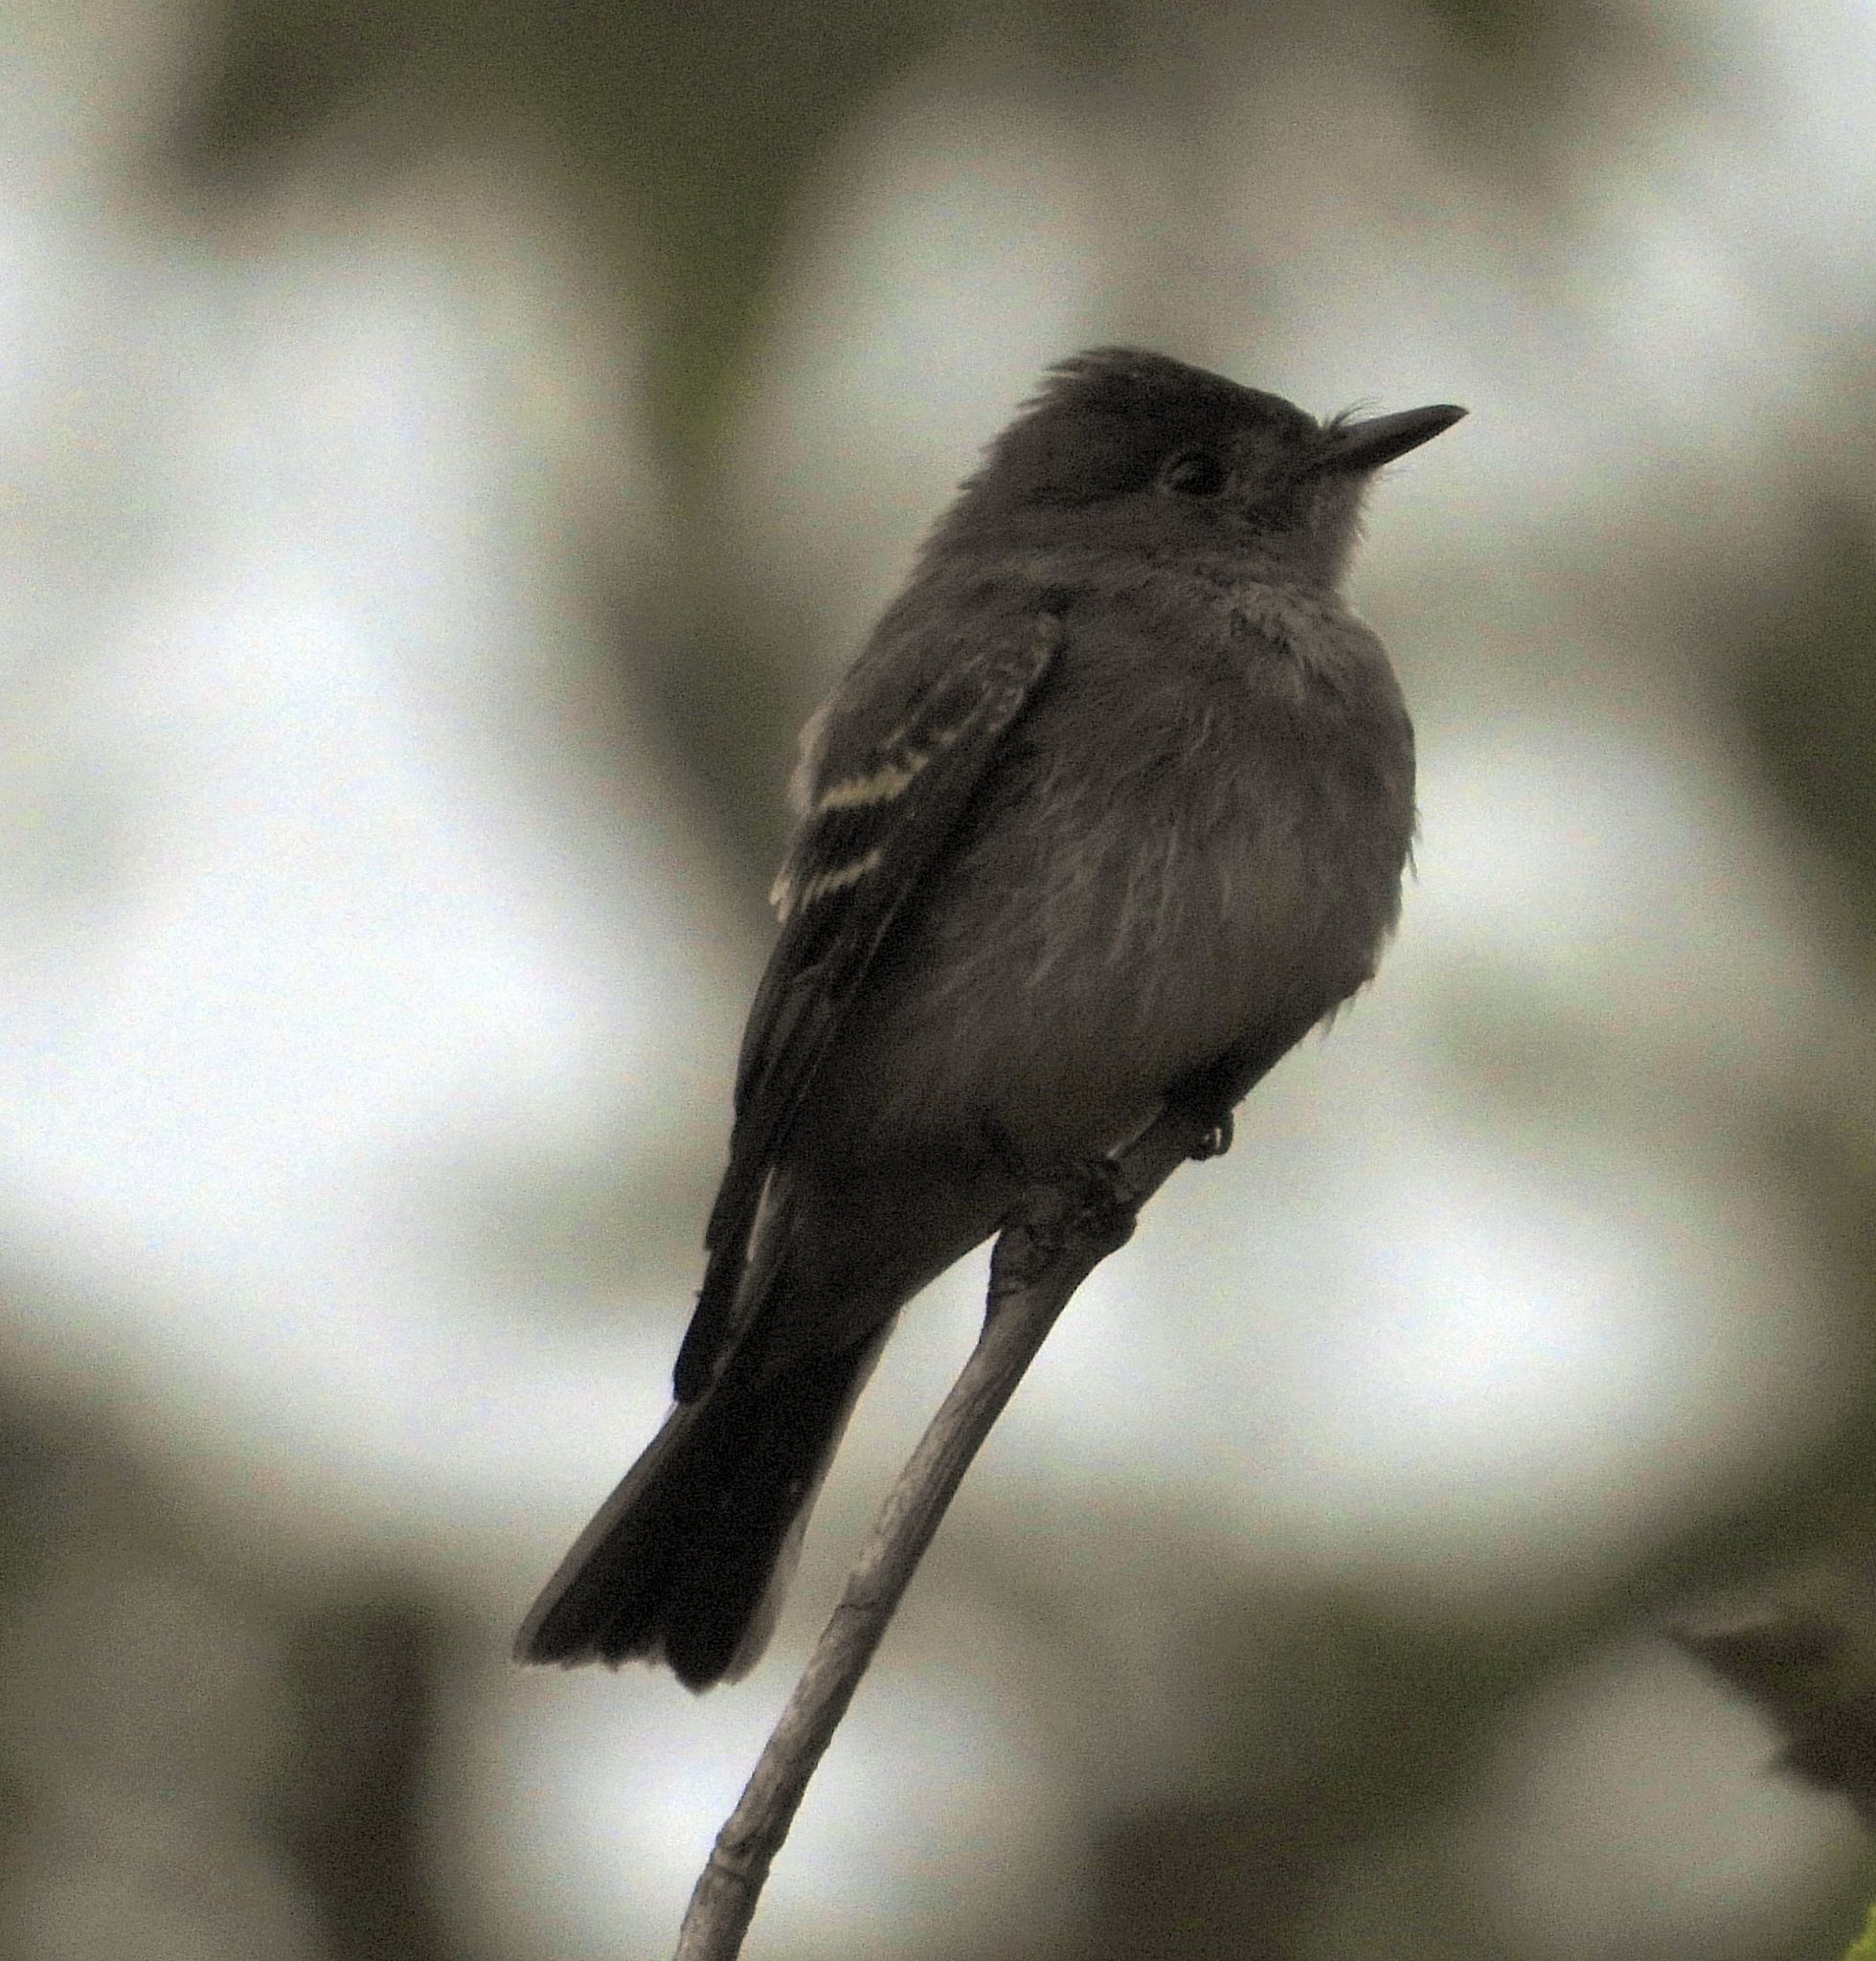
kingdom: Animalia
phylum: Chordata
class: Aves
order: Passeriformes
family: Tyrannidae
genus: Contopus
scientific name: Contopus virens
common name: Eastern wood-pewee
